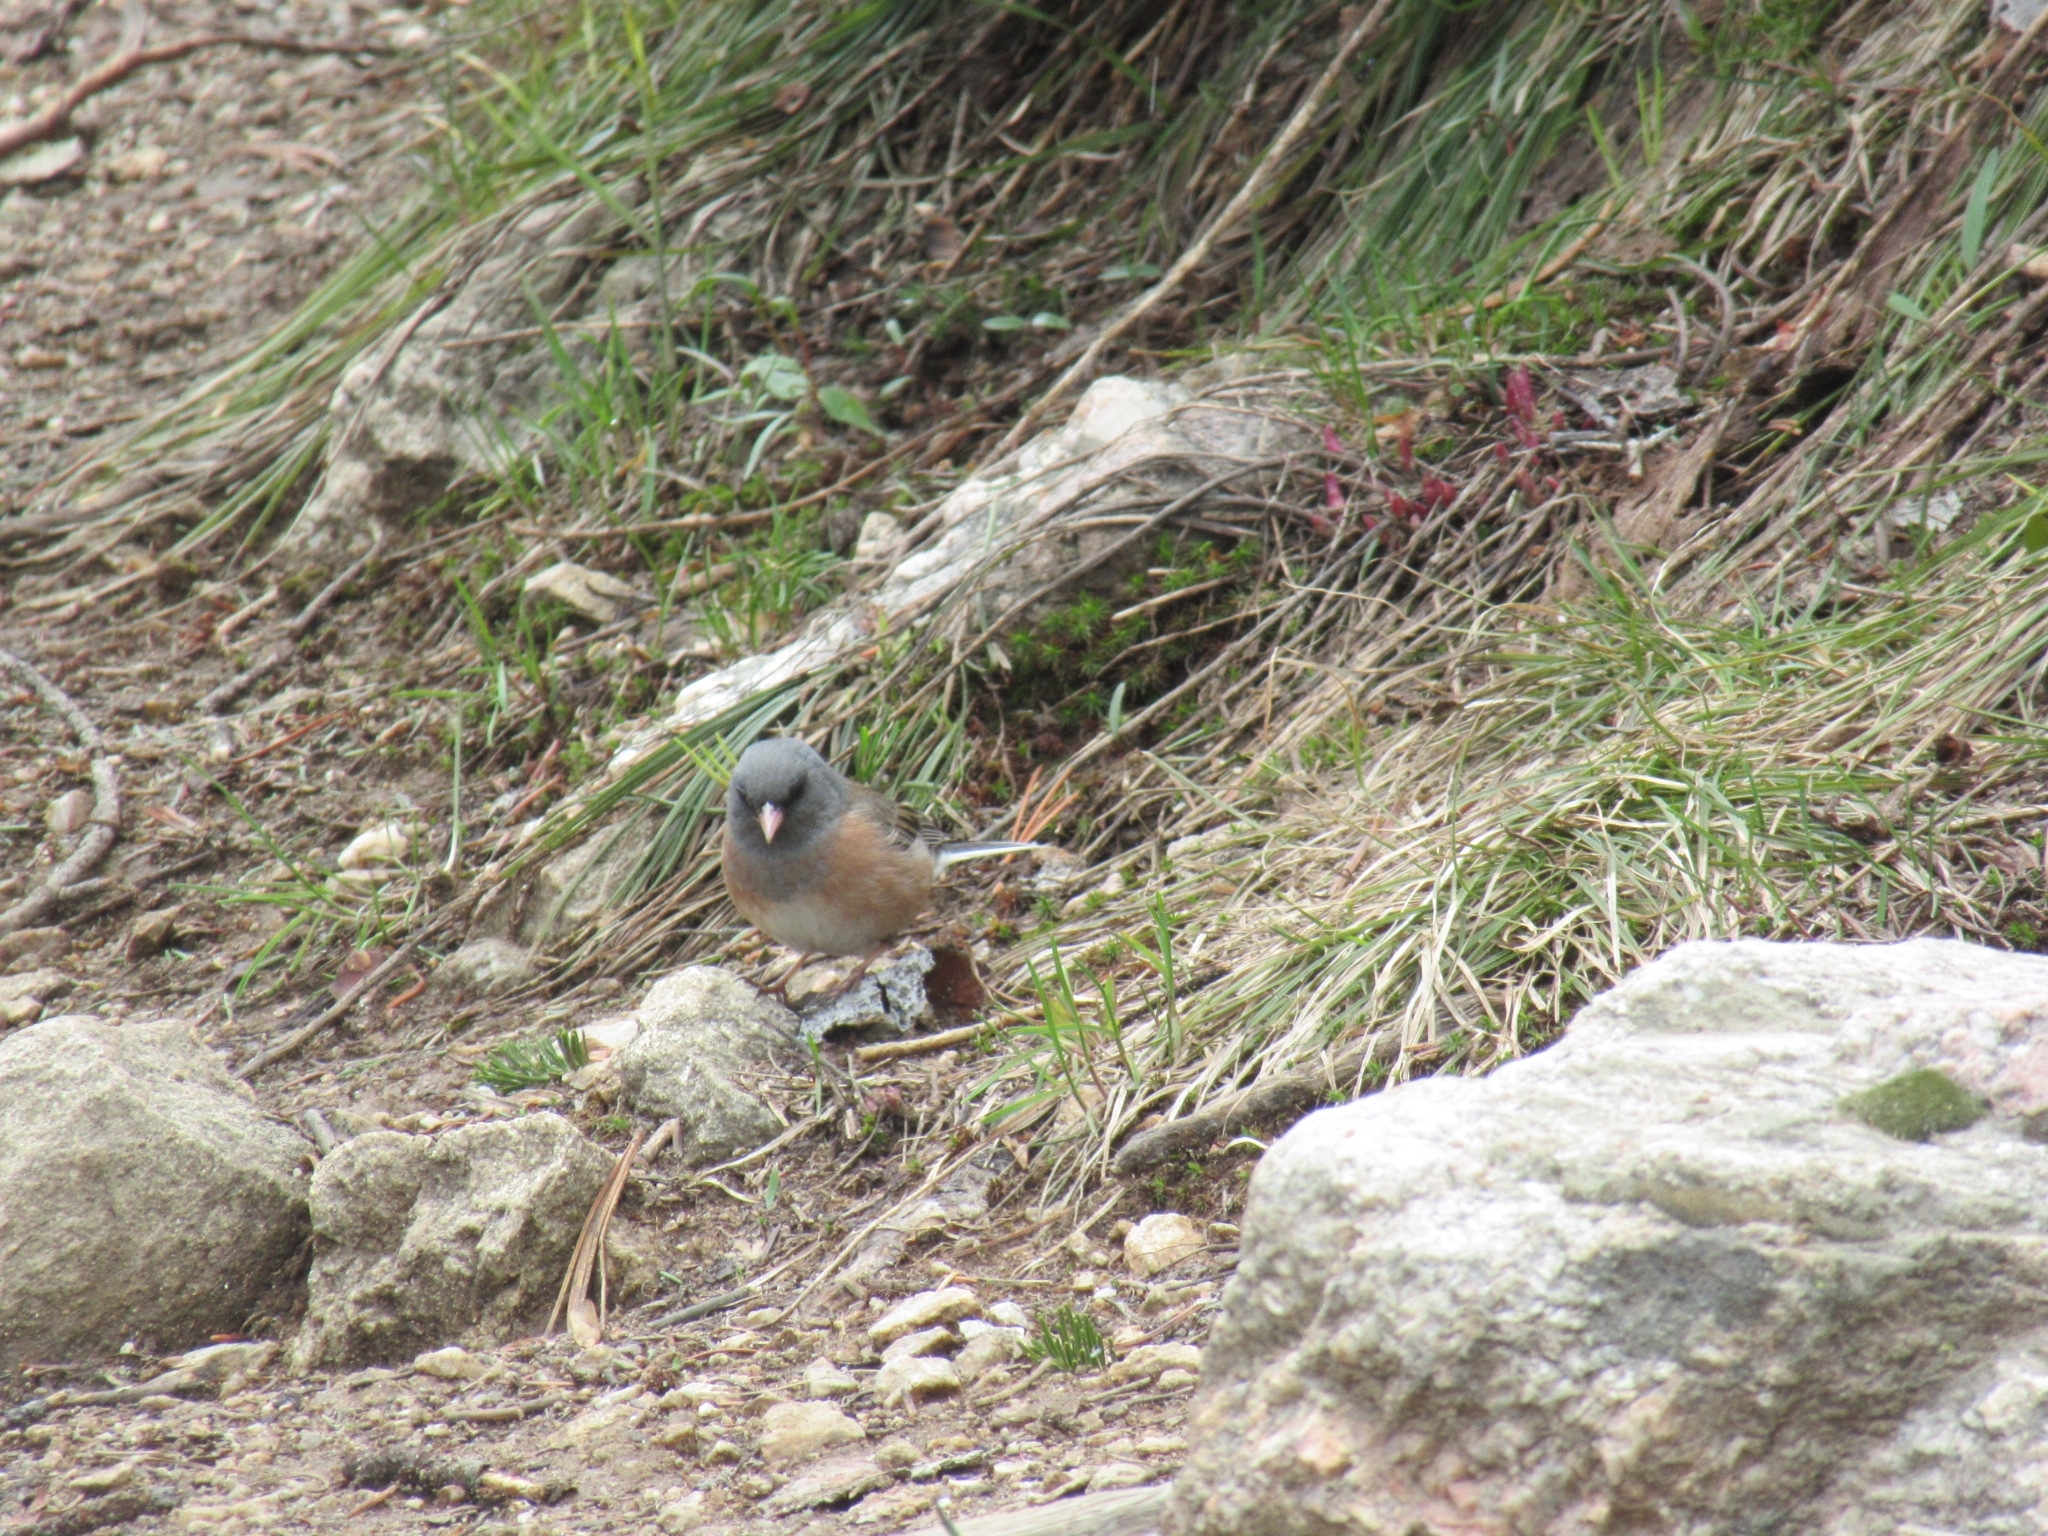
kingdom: Animalia
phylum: Chordata
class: Aves
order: Passeriformes
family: Passerellidae
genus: Junco
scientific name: Junco hyemalis
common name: Dark-eyed junco
